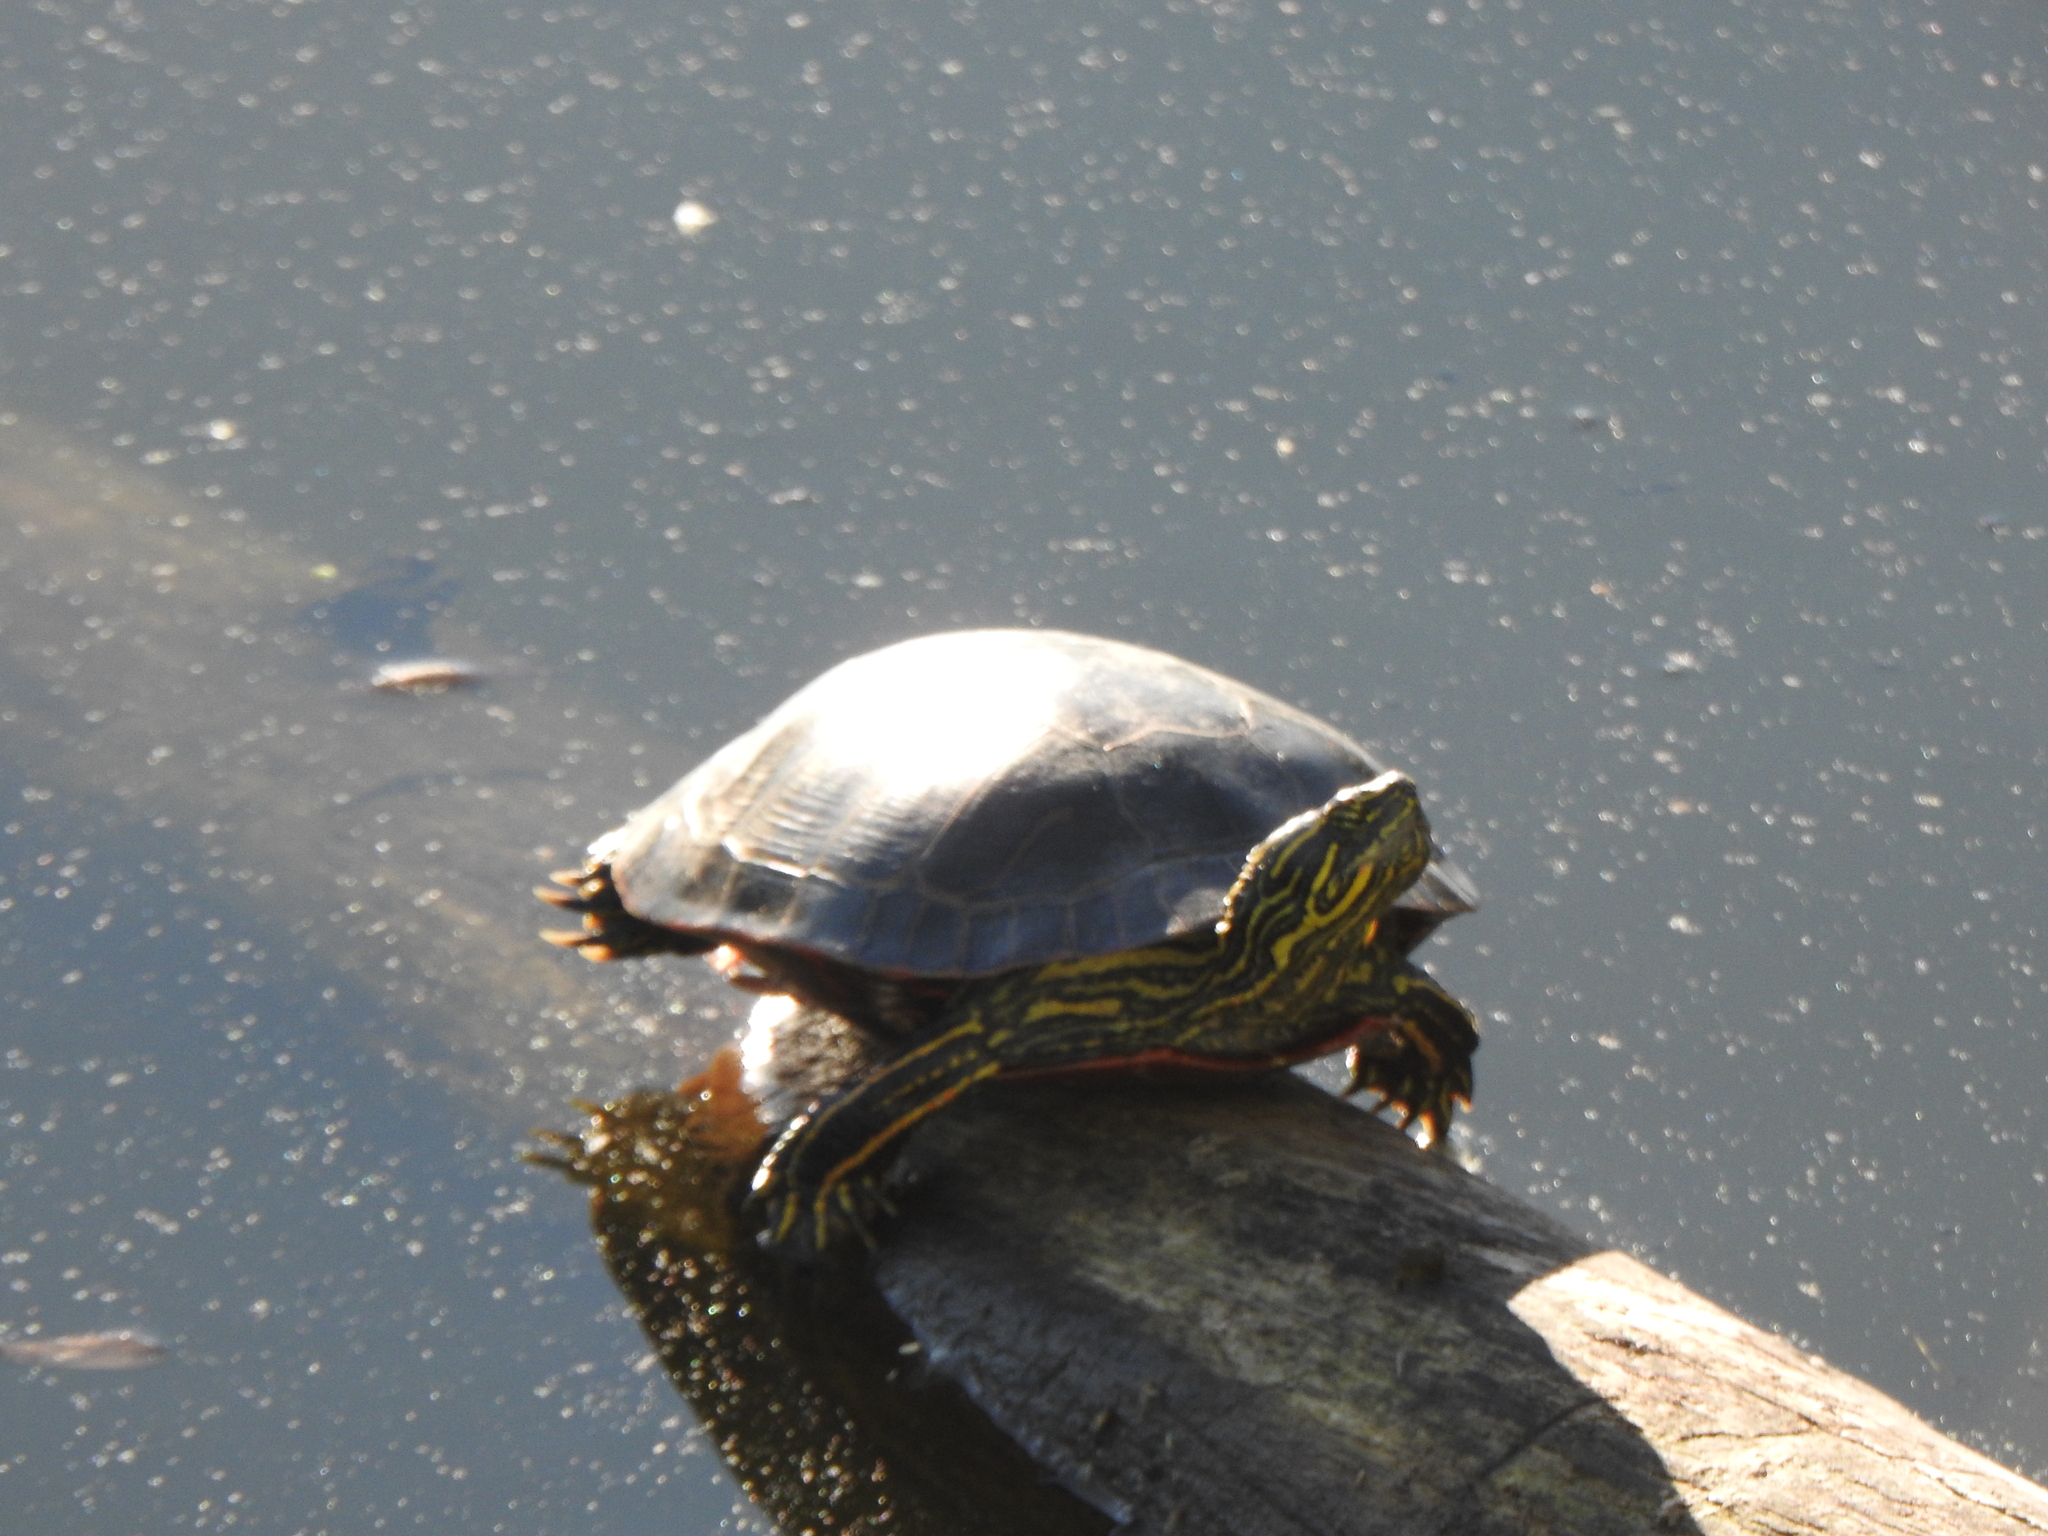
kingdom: Animalia
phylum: Chordata
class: Testudines
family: Emydidae
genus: Chrysemys
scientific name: Chrysemys picta
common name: Painted turtle
